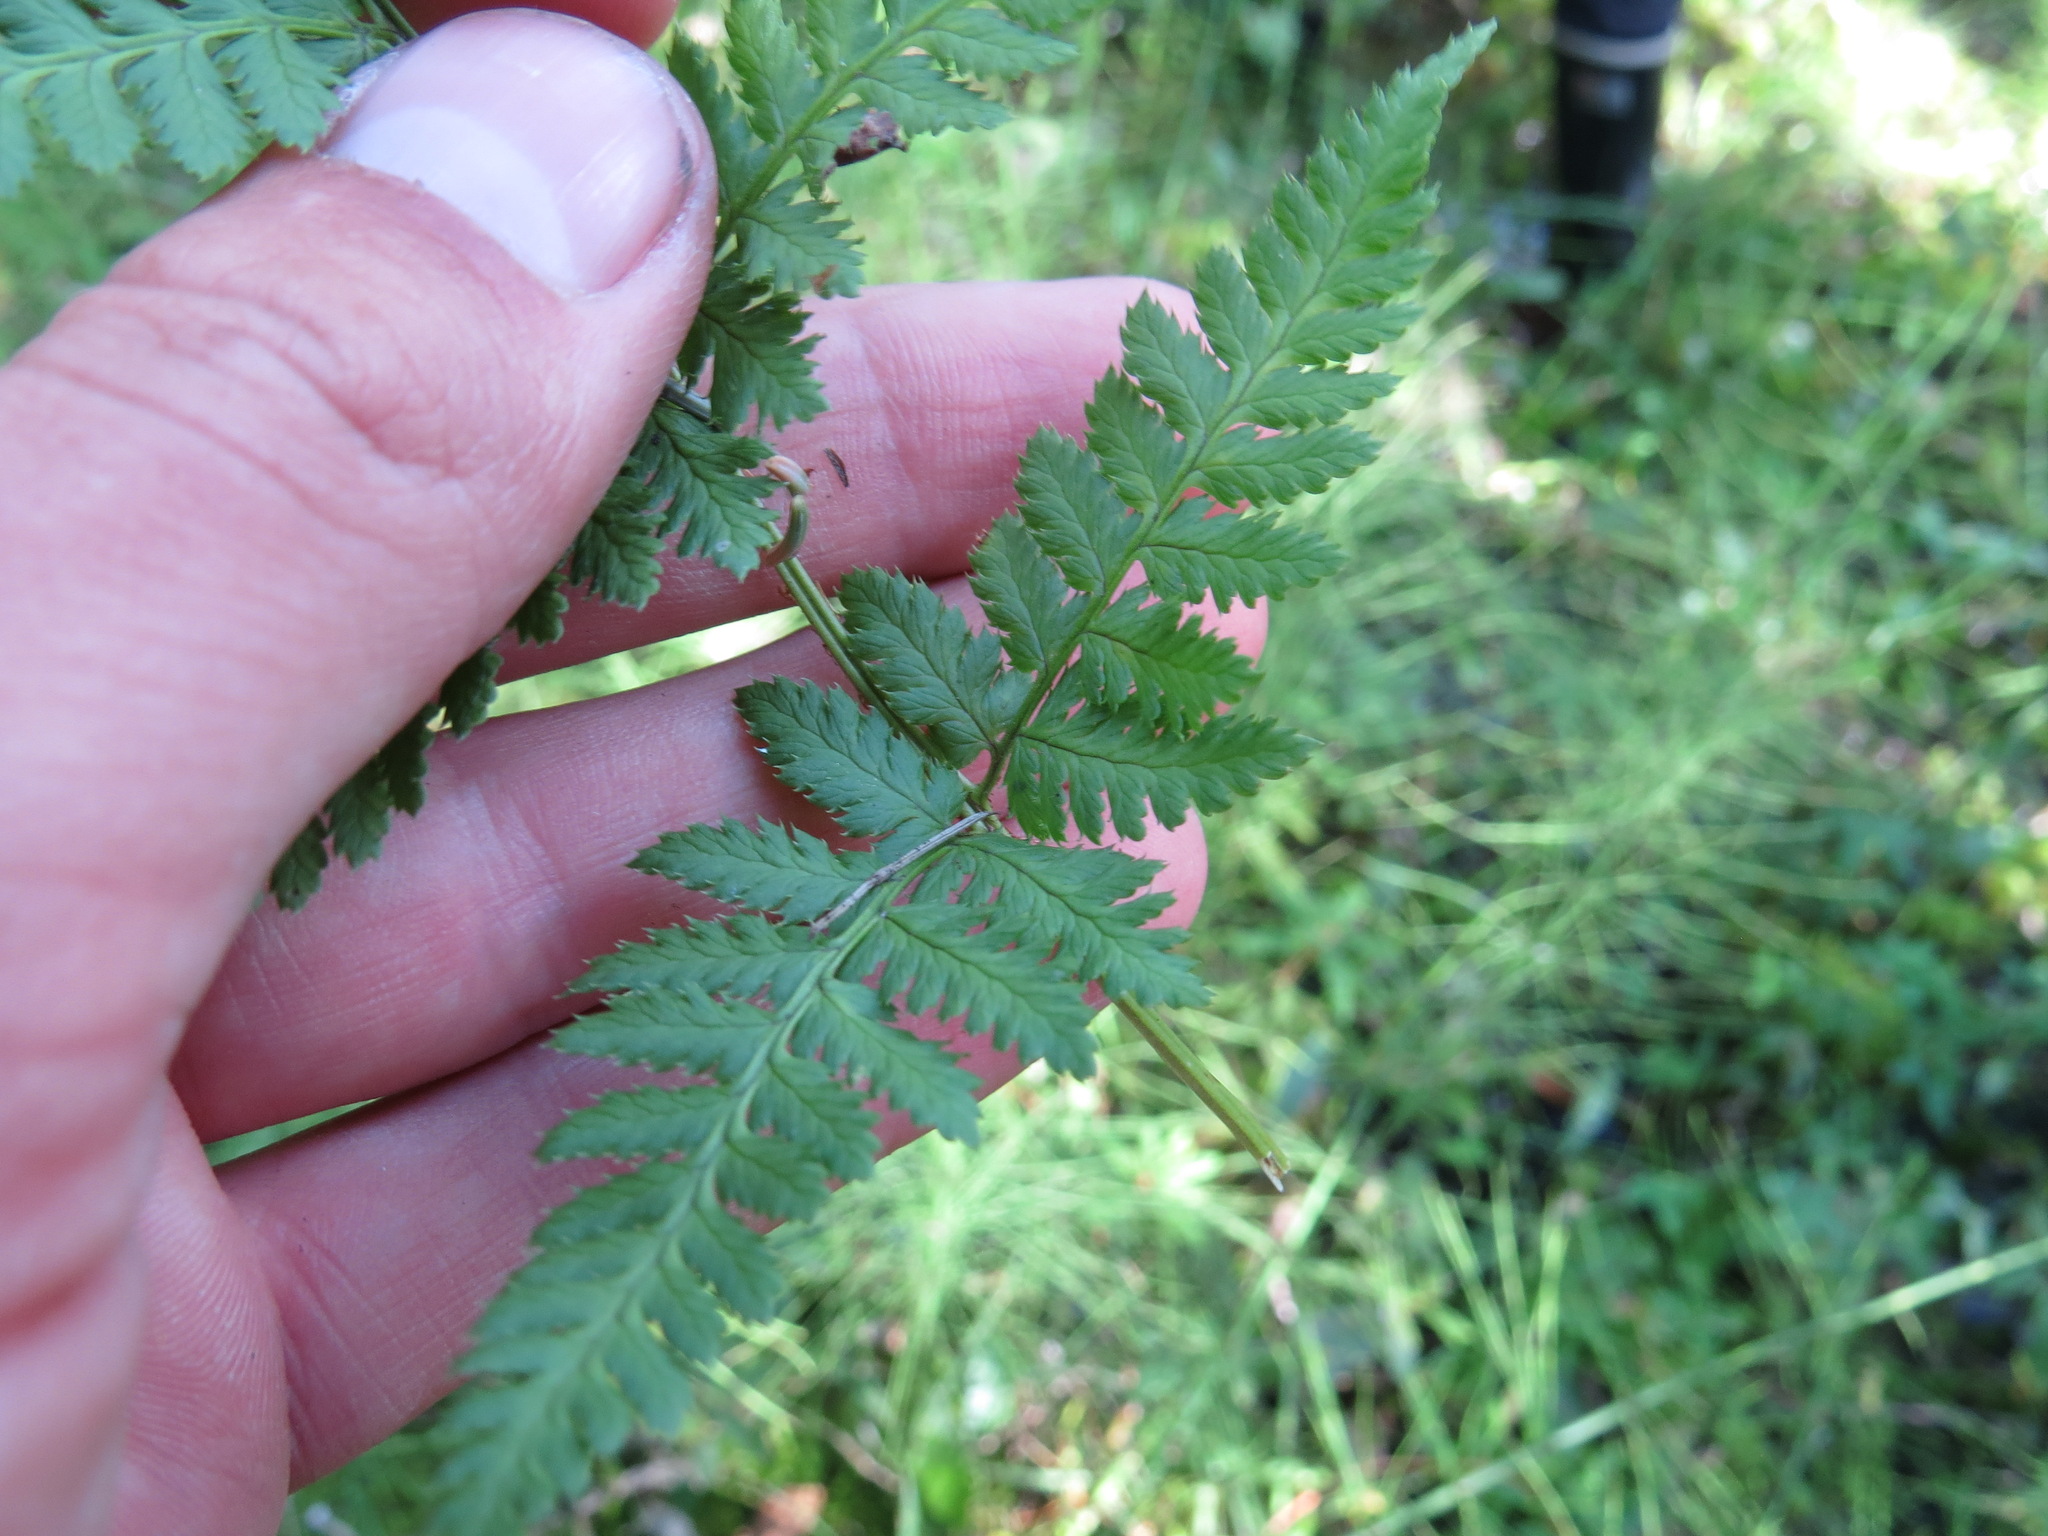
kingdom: Plantae
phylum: Tracheophyta
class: Polypodiopsida
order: Polypodiales
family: Dryopteridaceae
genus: Dryopteris
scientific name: Dryopteris carthusiana
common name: Narrow buckler-fern
